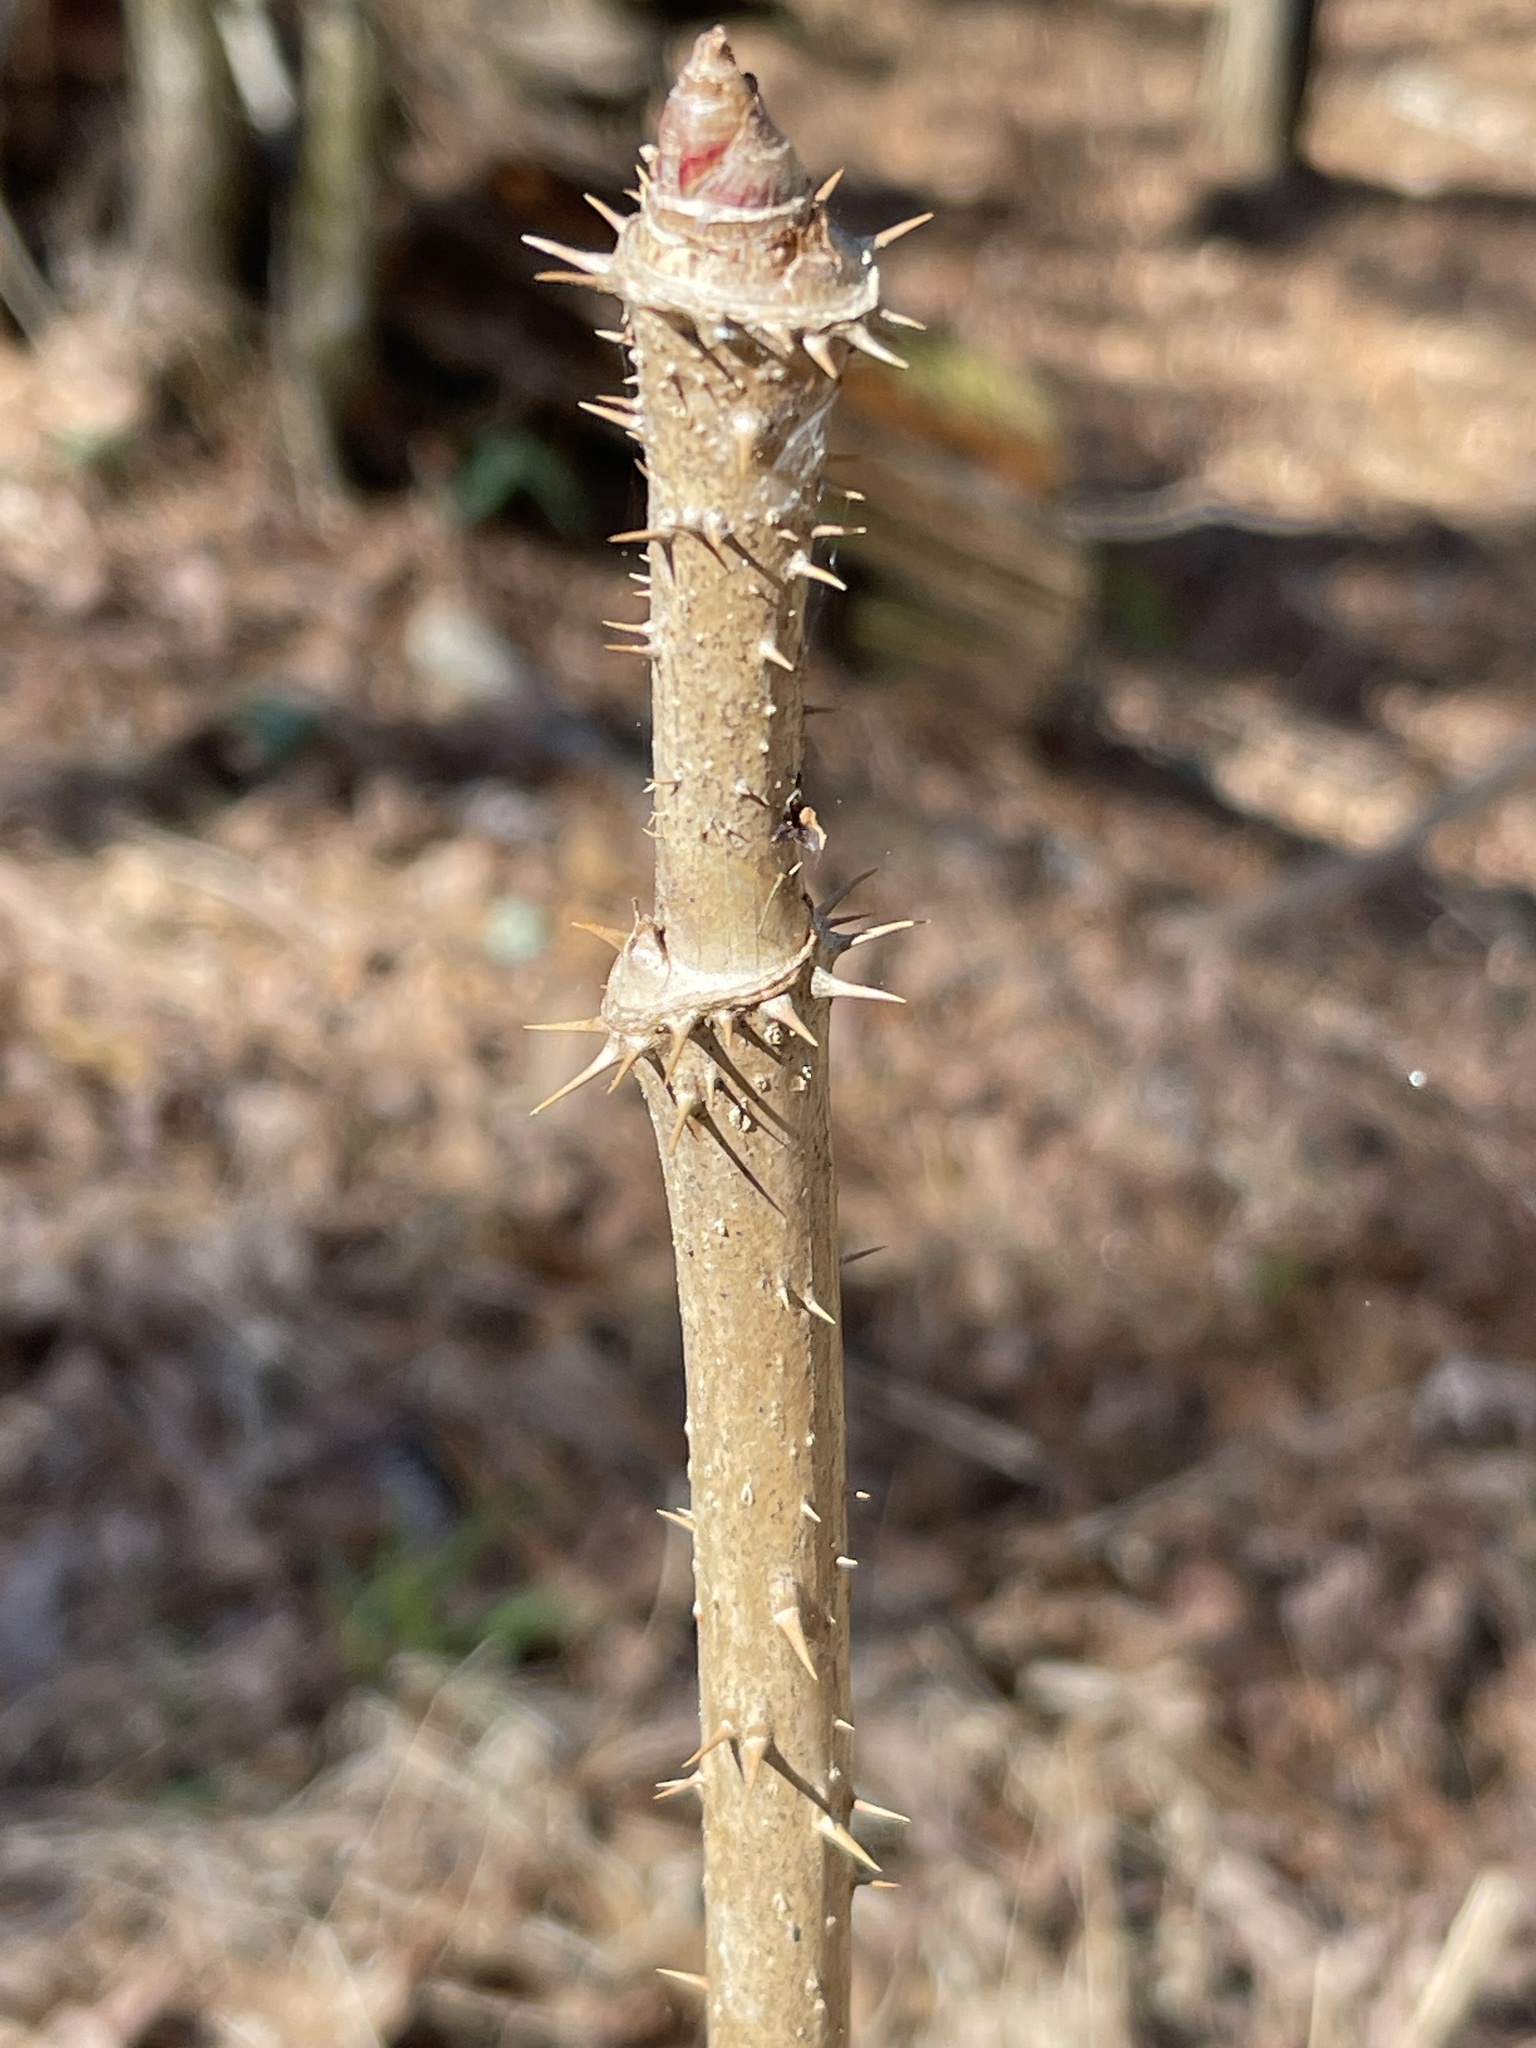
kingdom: Plantae
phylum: Tracheophyta
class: Magnoliopsida
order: Apiales
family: Araliaceae
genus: Aralia
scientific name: Aralia spinosa
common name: Hercules'-club
